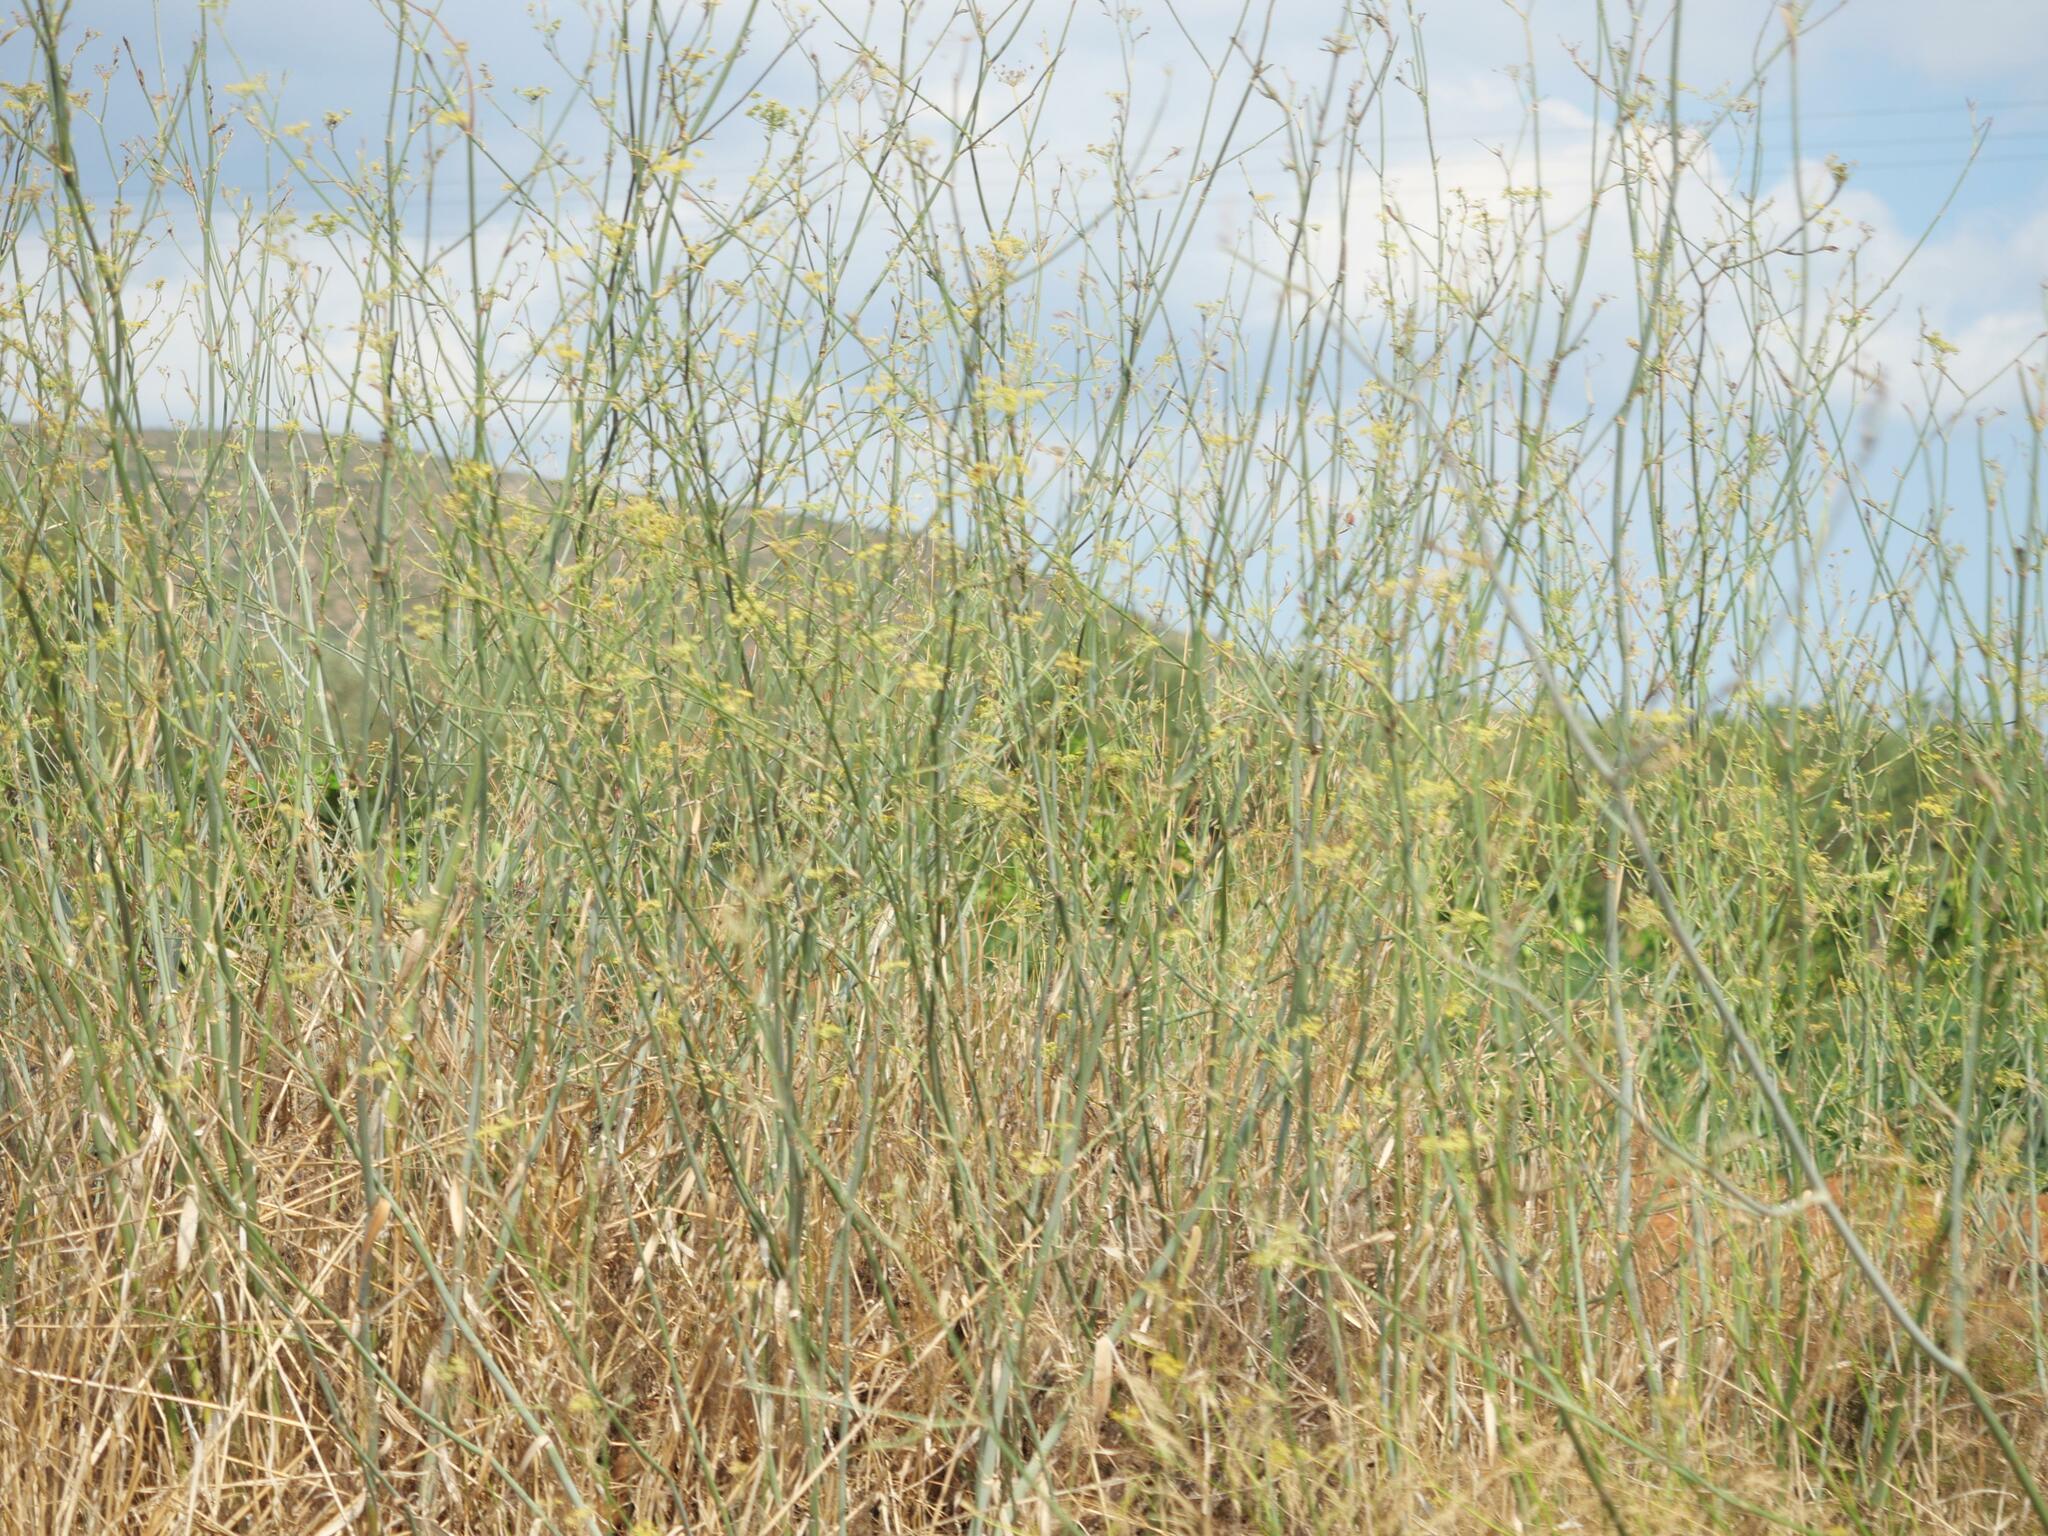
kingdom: Plantae
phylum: Tracheophyta
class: Magnoliopsida
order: Apiales
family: Apiaceae
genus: Foeniculum
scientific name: Foeniculum vulgare
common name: Fennel
